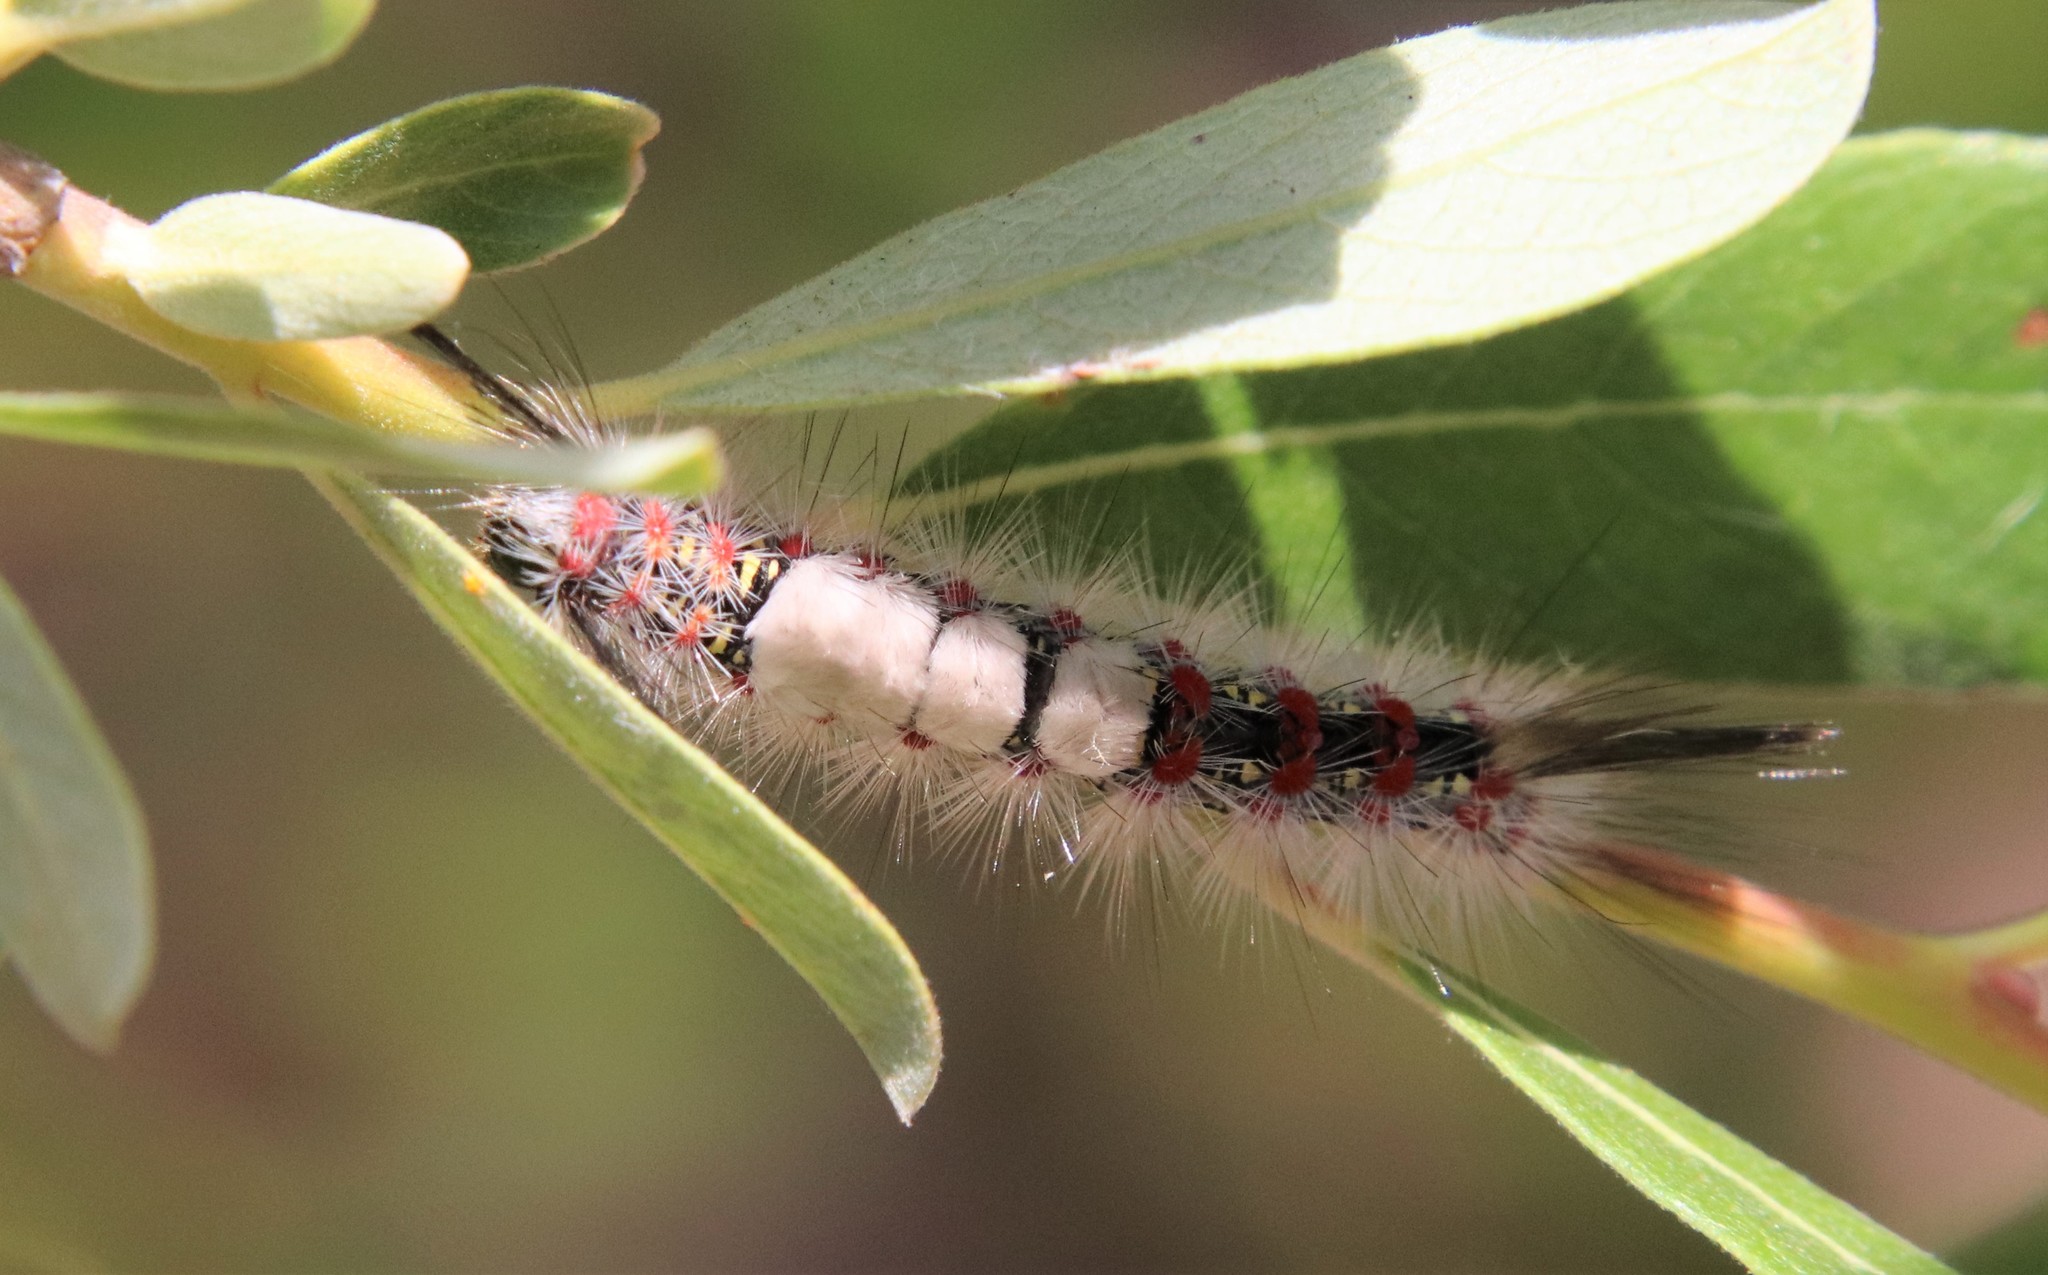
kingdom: Animalia
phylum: Arthropoda
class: Insecta
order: Lepidoptera
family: Erebidae
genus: Orgyia
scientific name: Orgyia vetusta
